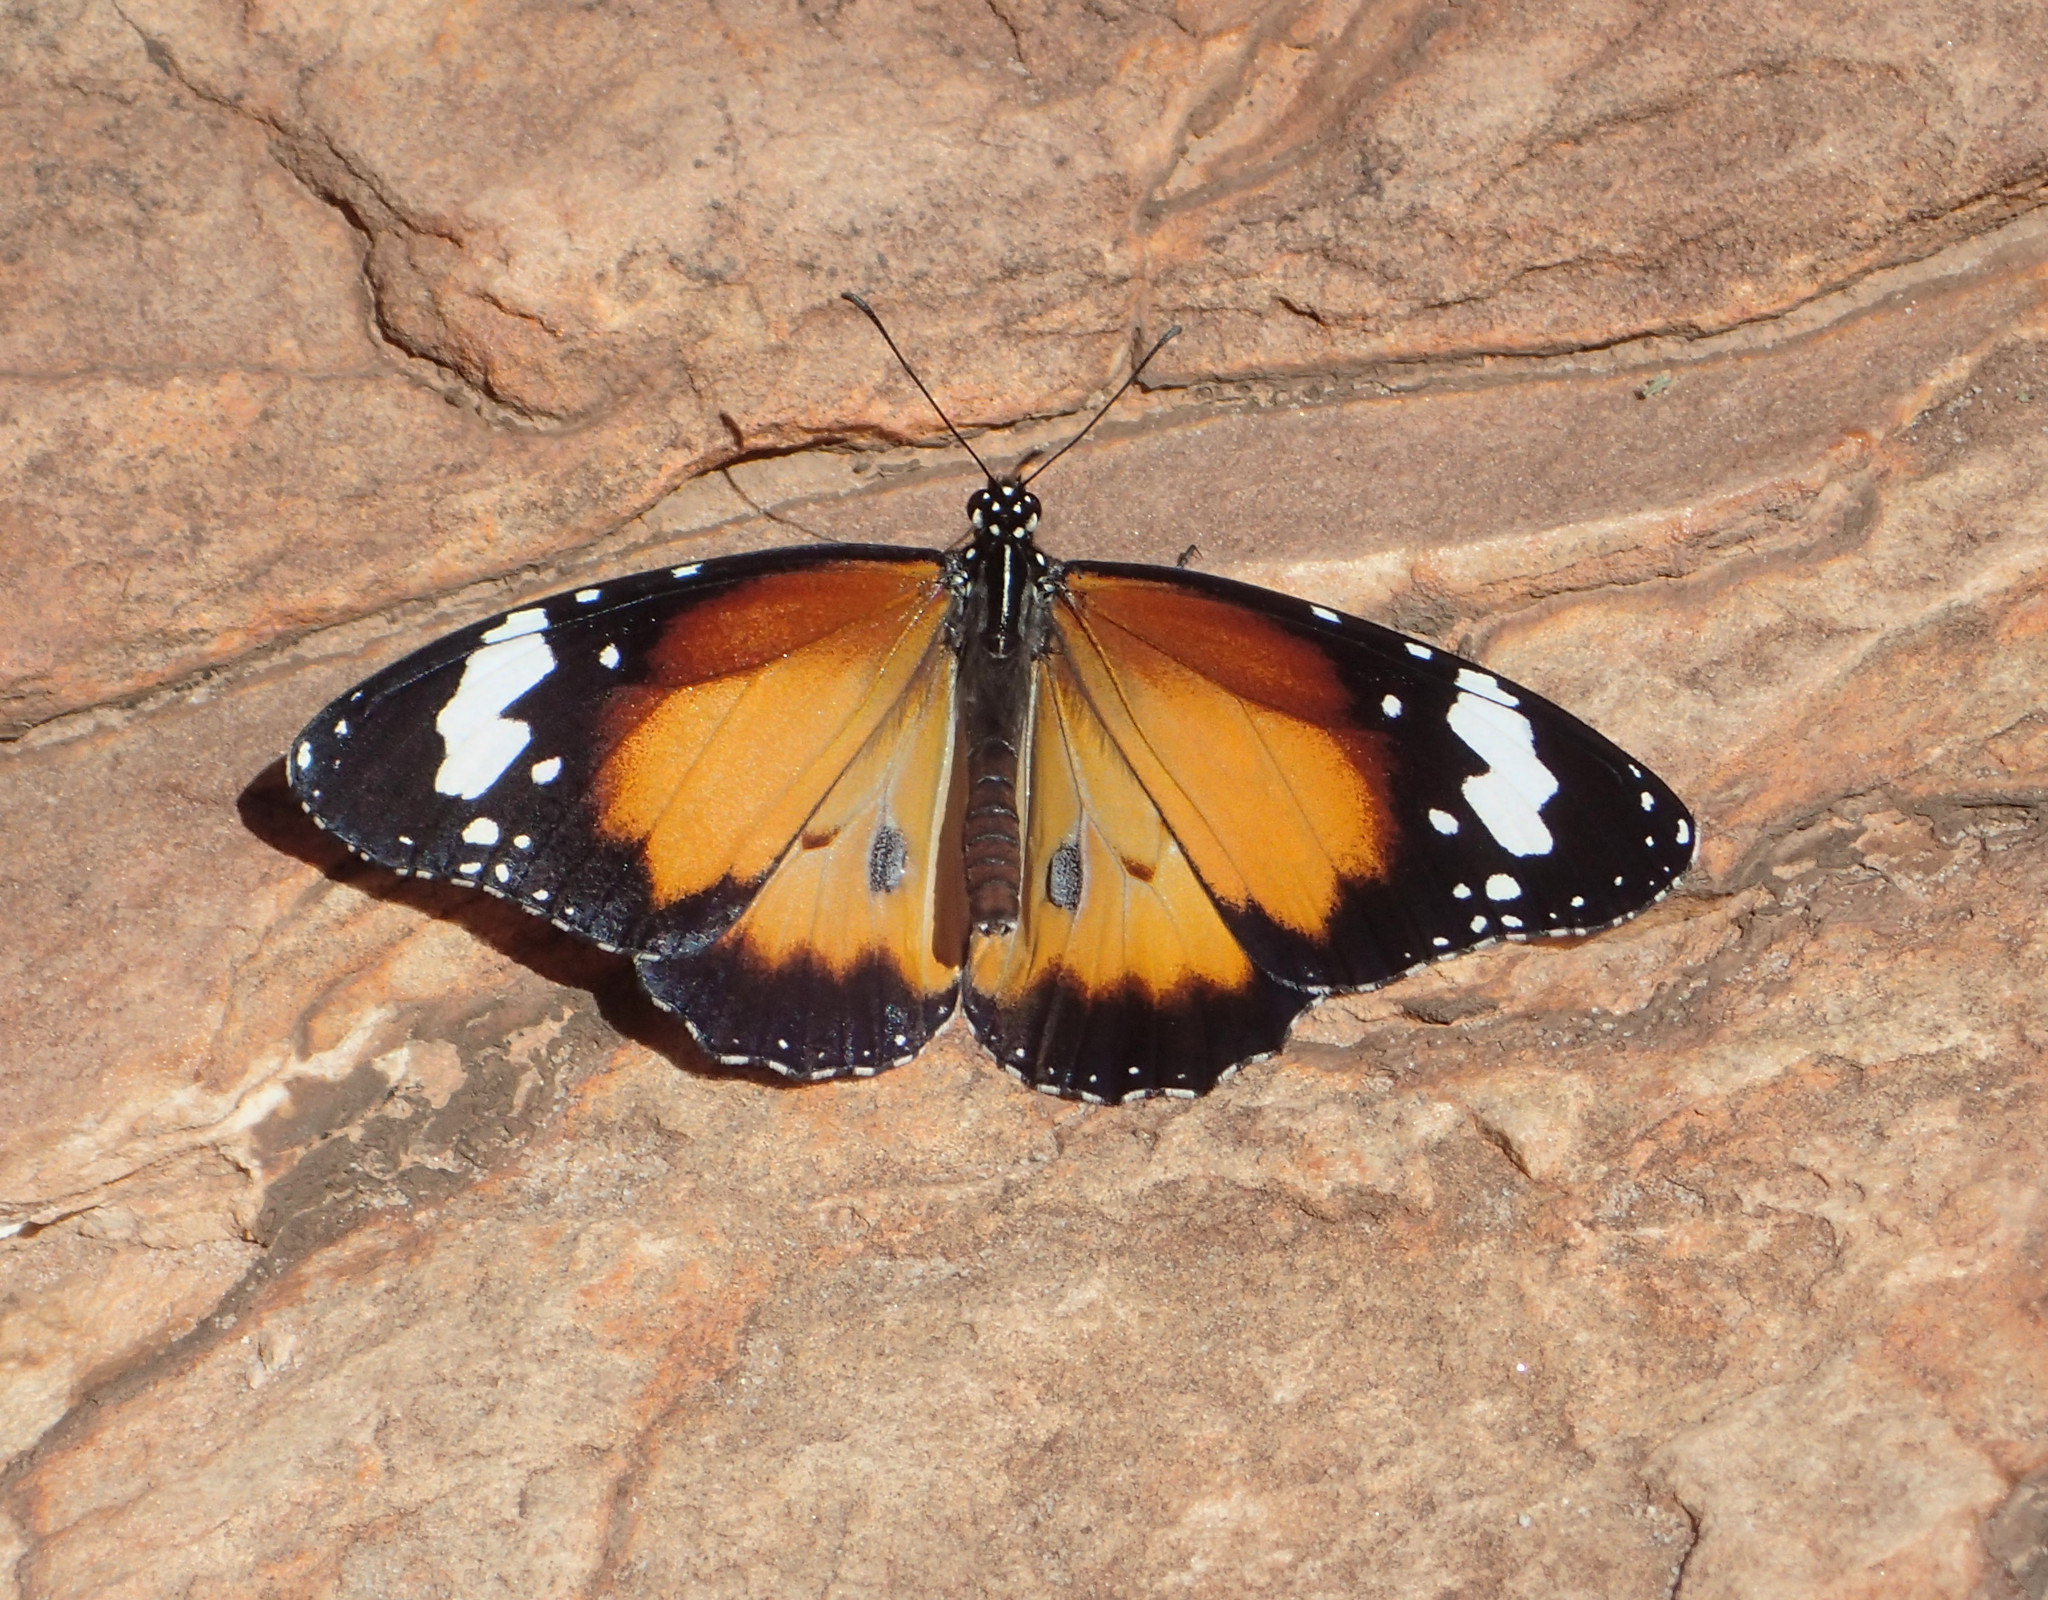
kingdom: Animalia
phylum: Arthropoda
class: Insecta
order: Lepidoptera
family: Nymphalidae
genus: Danaus
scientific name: Danaus chrysippus
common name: Plain tiger
